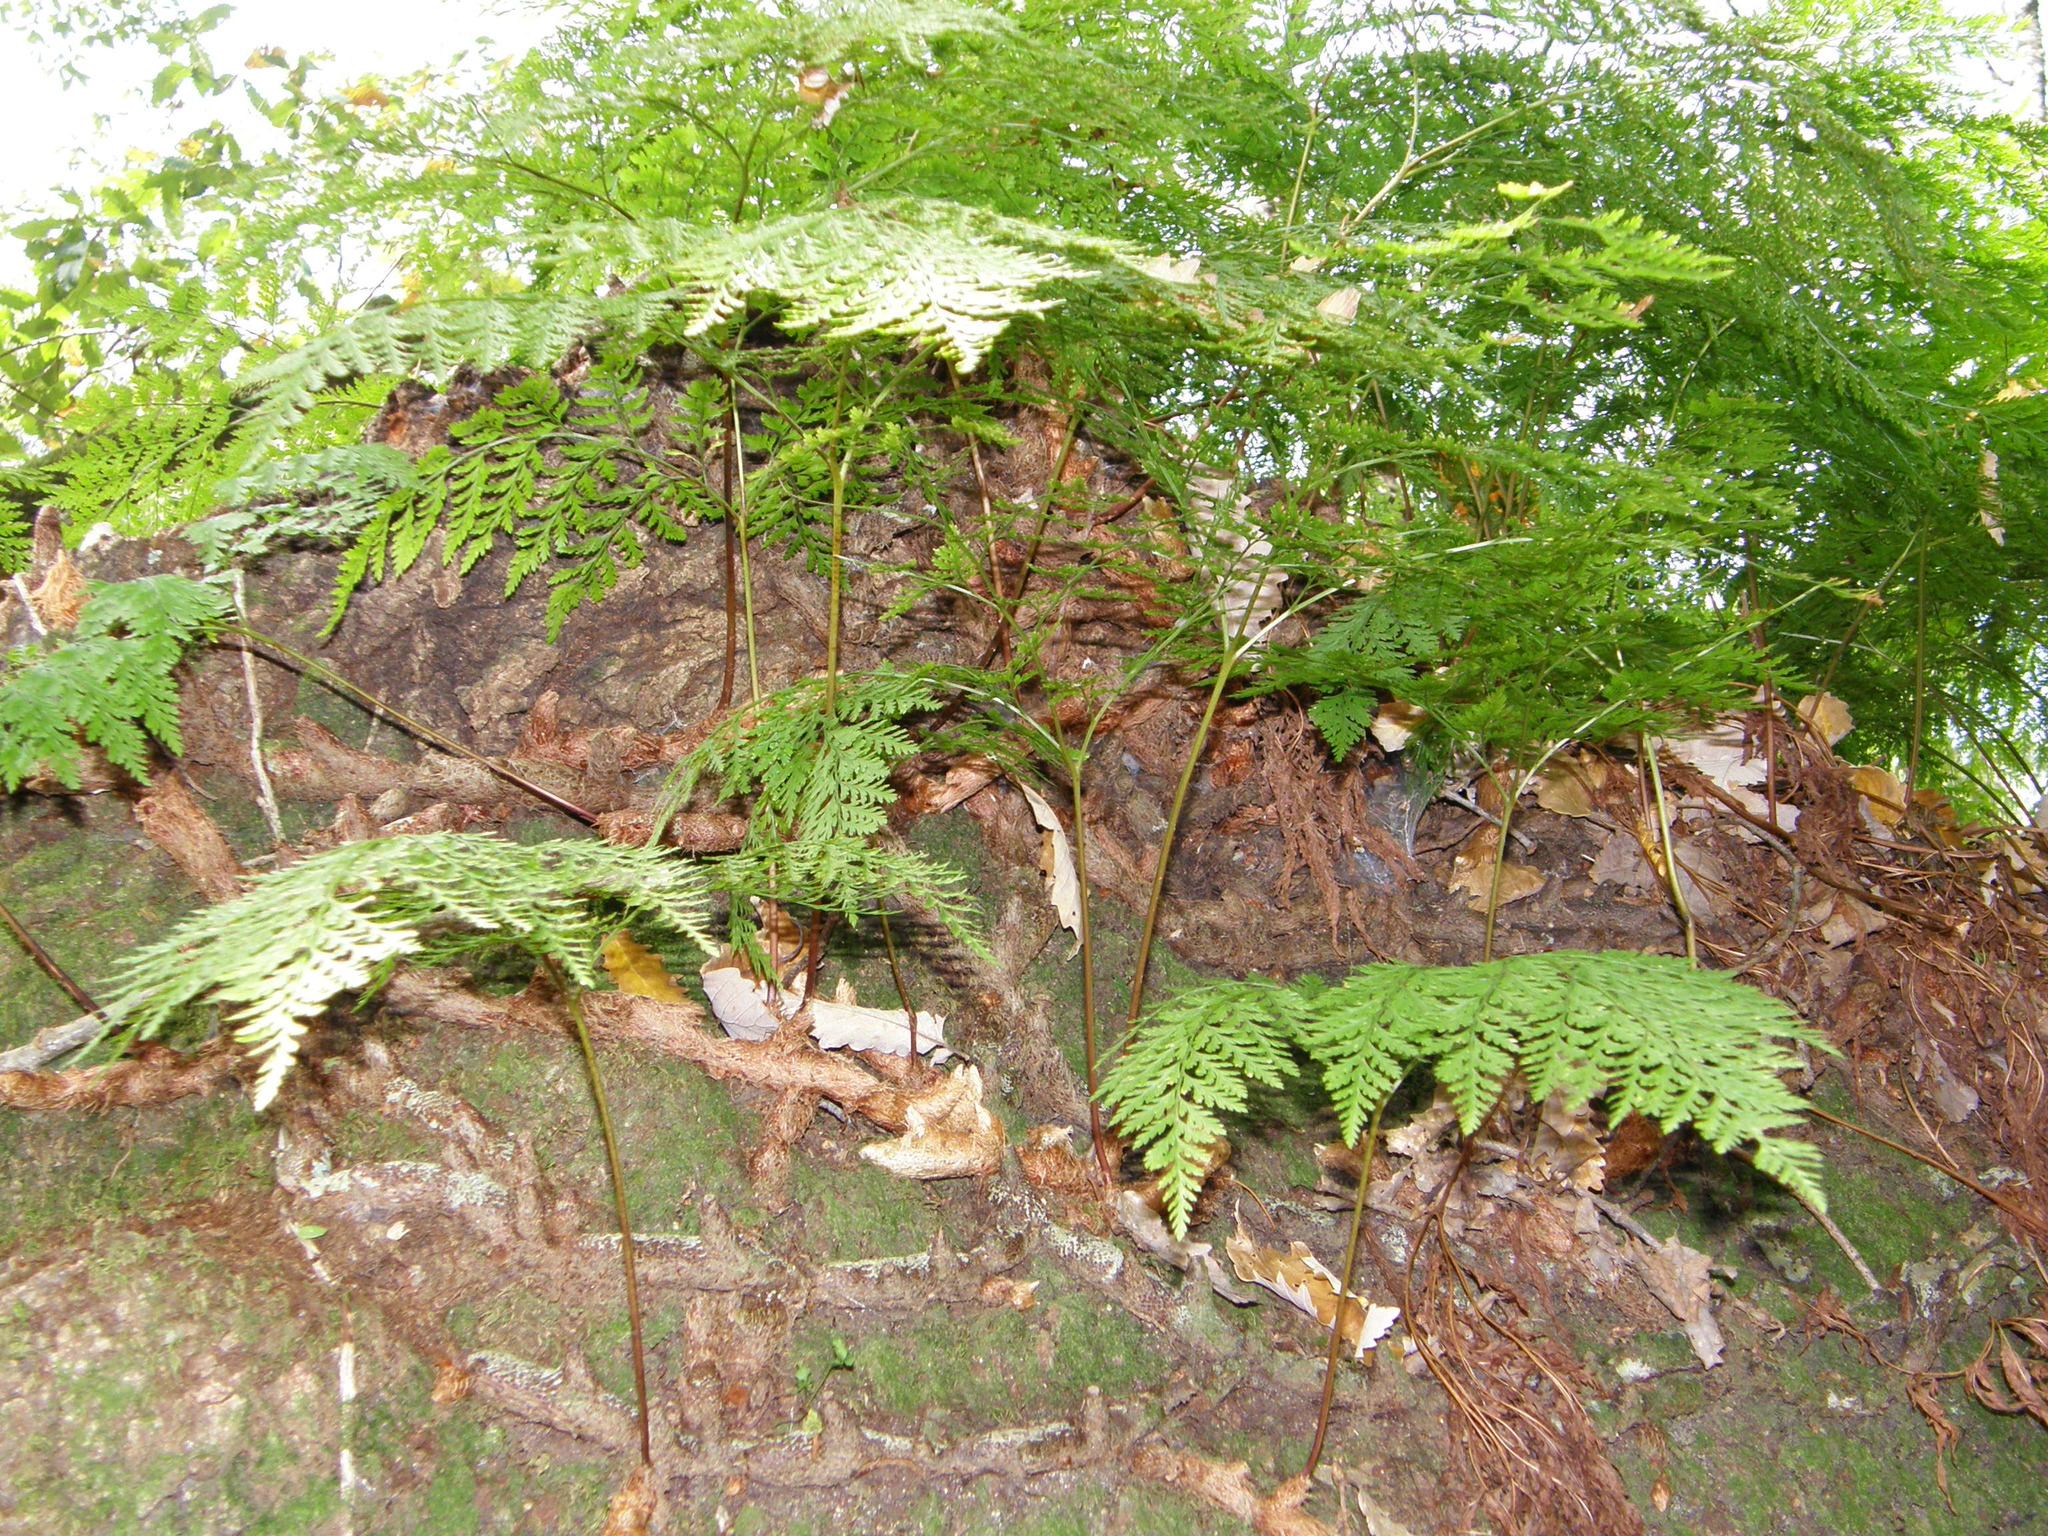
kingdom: Plantae
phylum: Tracheophyta
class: Polypodiopsida
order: Polypodiales
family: Davalliaceae
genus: Davallia
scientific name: Davallia canariensis
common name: Hare's-foot fern
